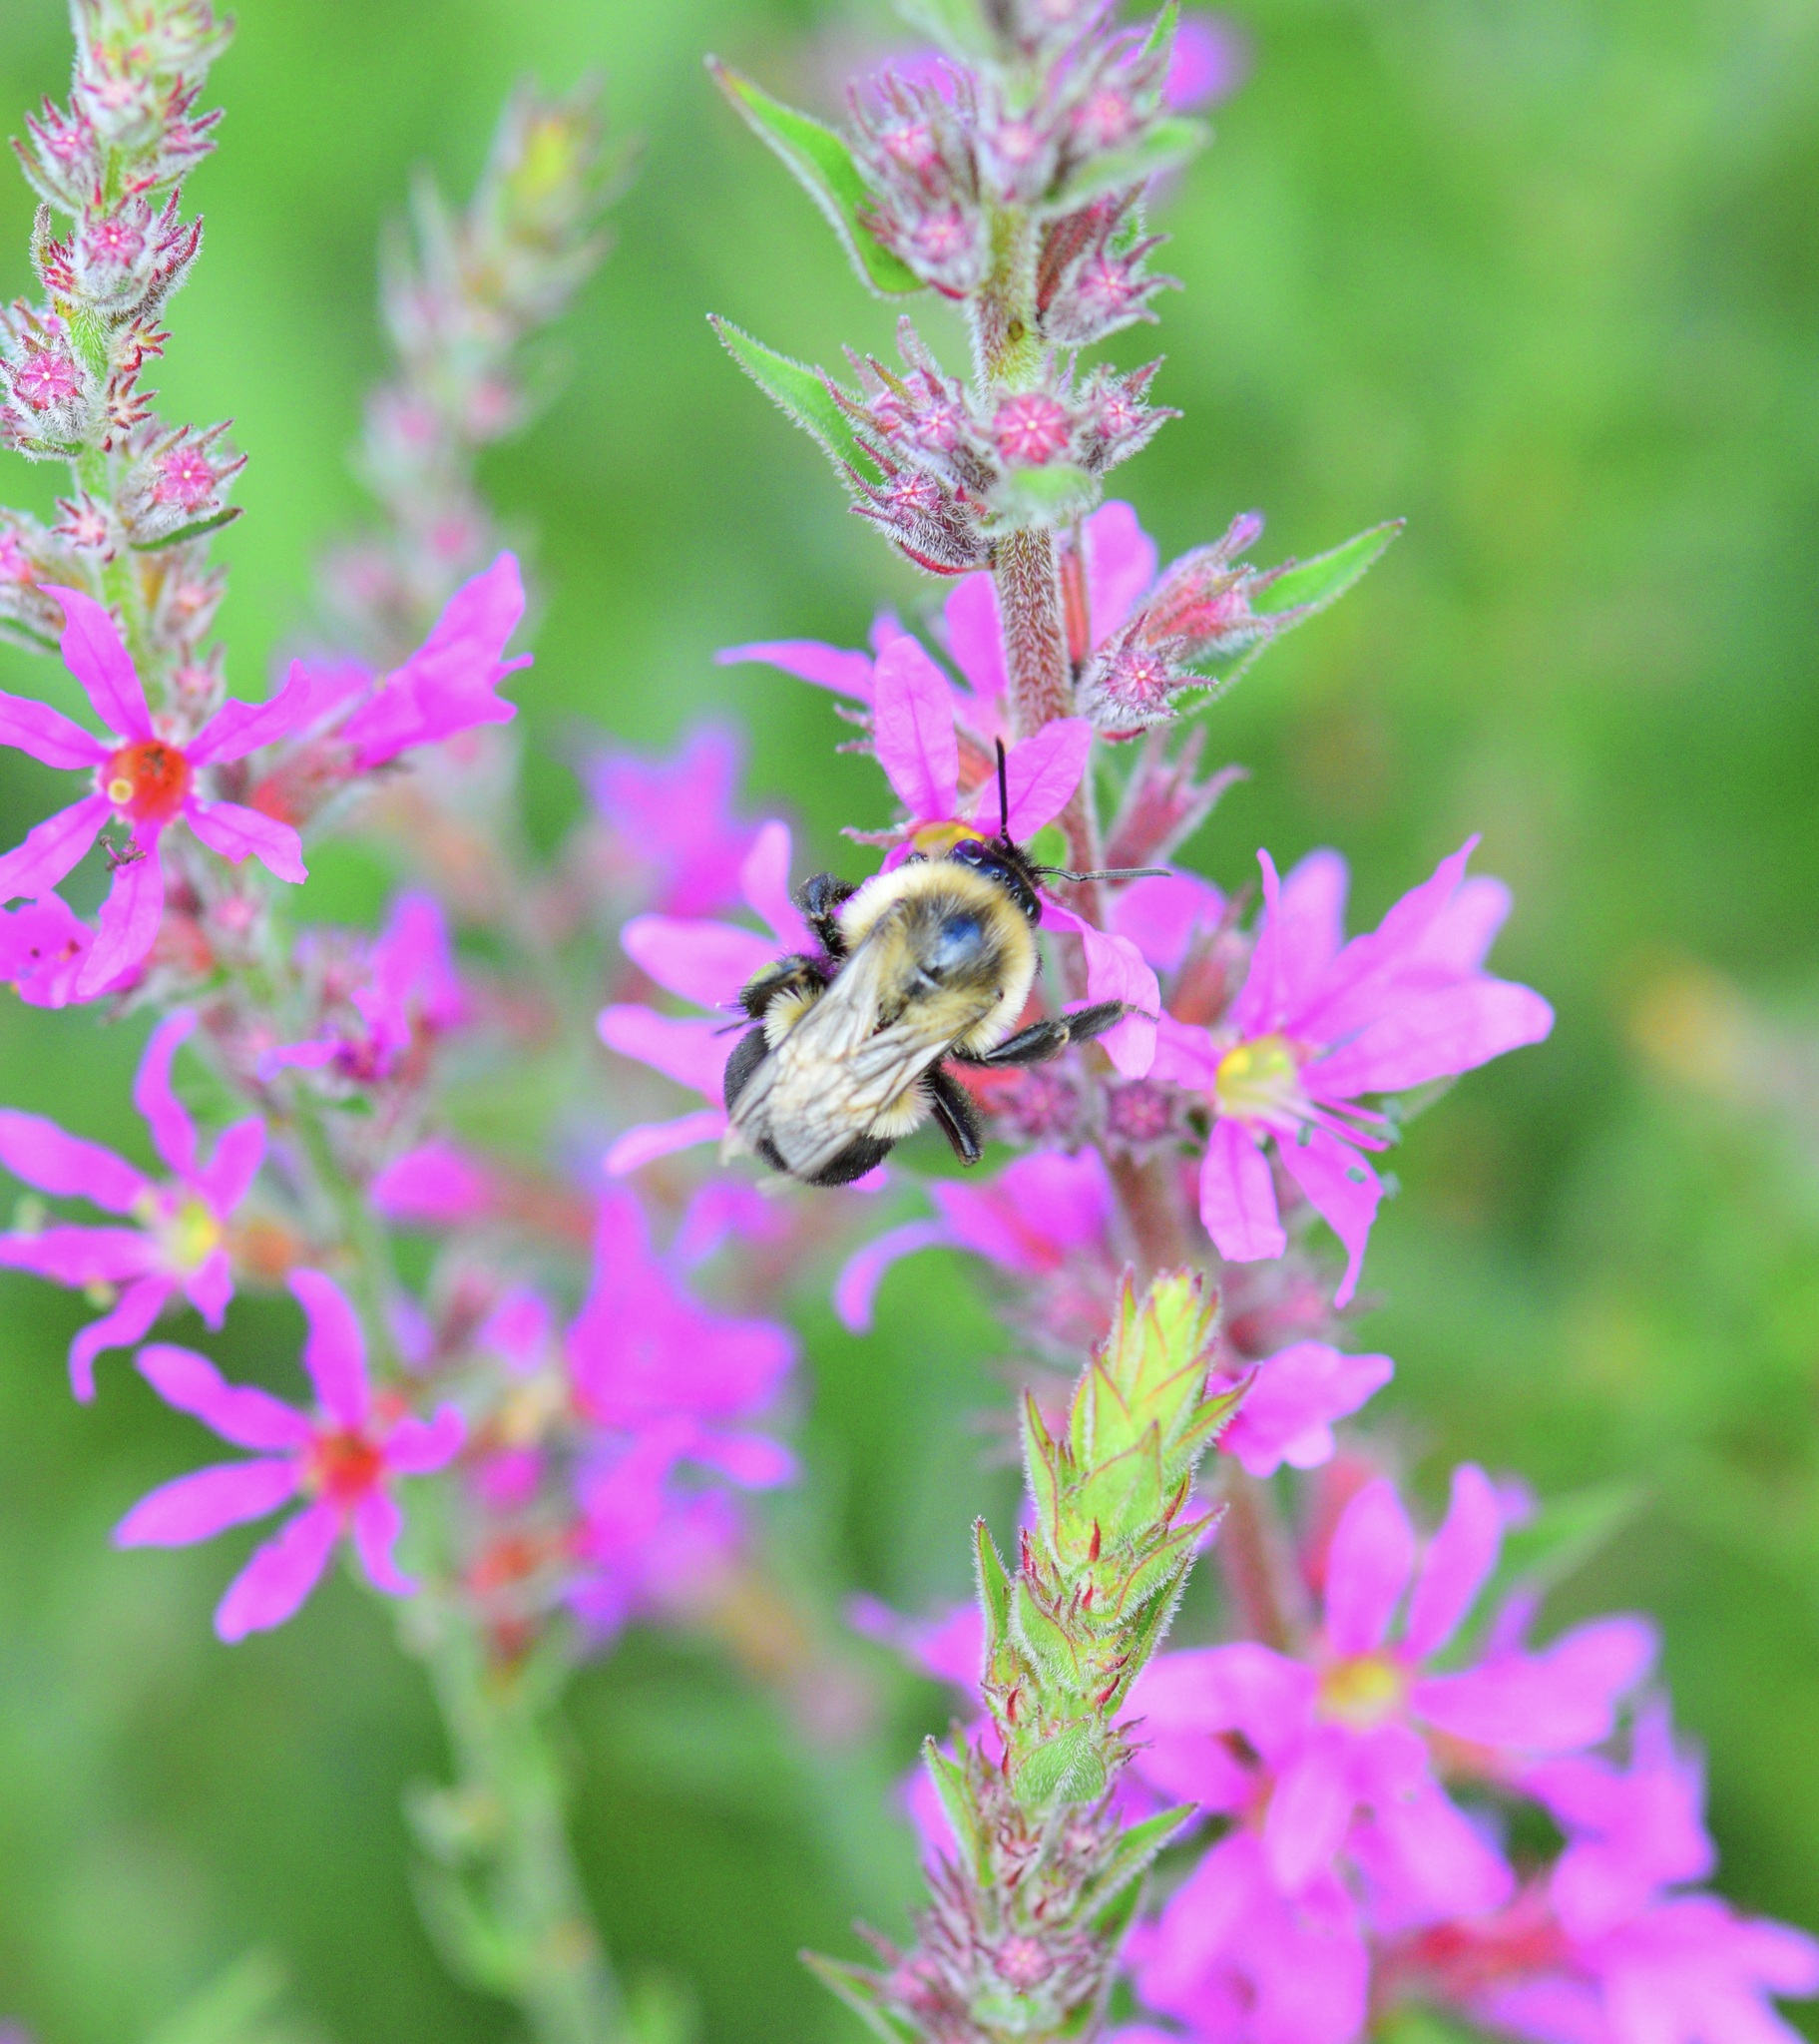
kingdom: Animalia
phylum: Arthropoda
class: Insecta
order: Hymenoptera
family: Apidae
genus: Bombus
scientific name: Bombus impatiens
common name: Common eastern bumble bee
